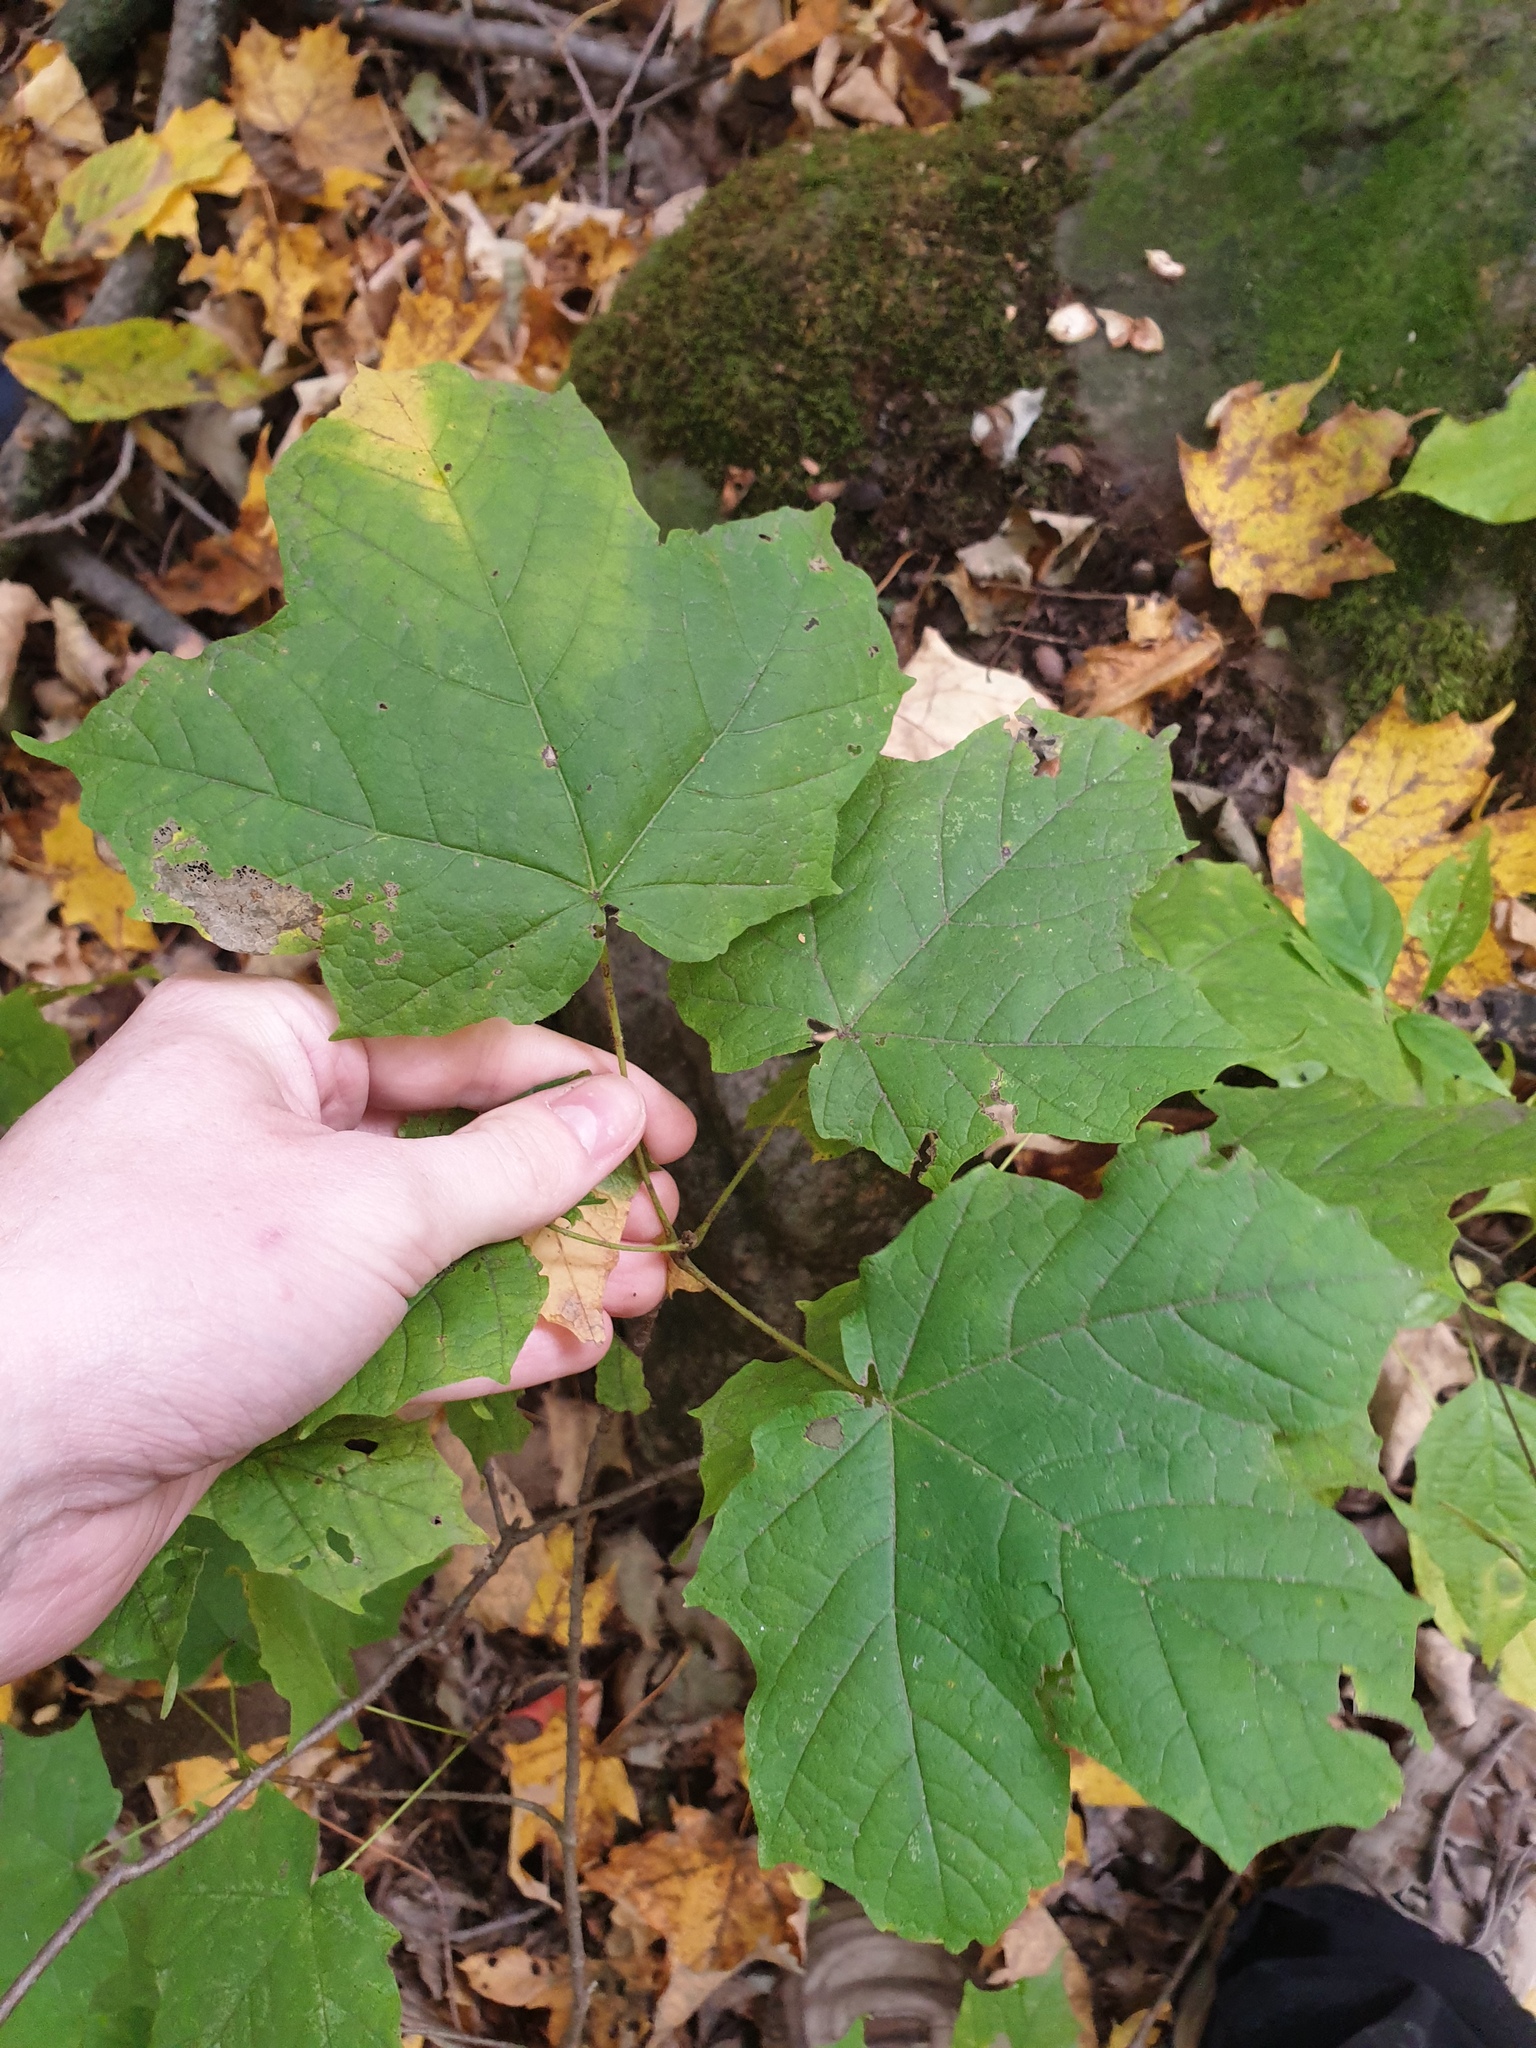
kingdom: Plantae
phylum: Tracheophyta
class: Magnoliopsida
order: Sapindales
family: Sapindaceae
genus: Acer
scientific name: Acer nigrum
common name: Black maple
